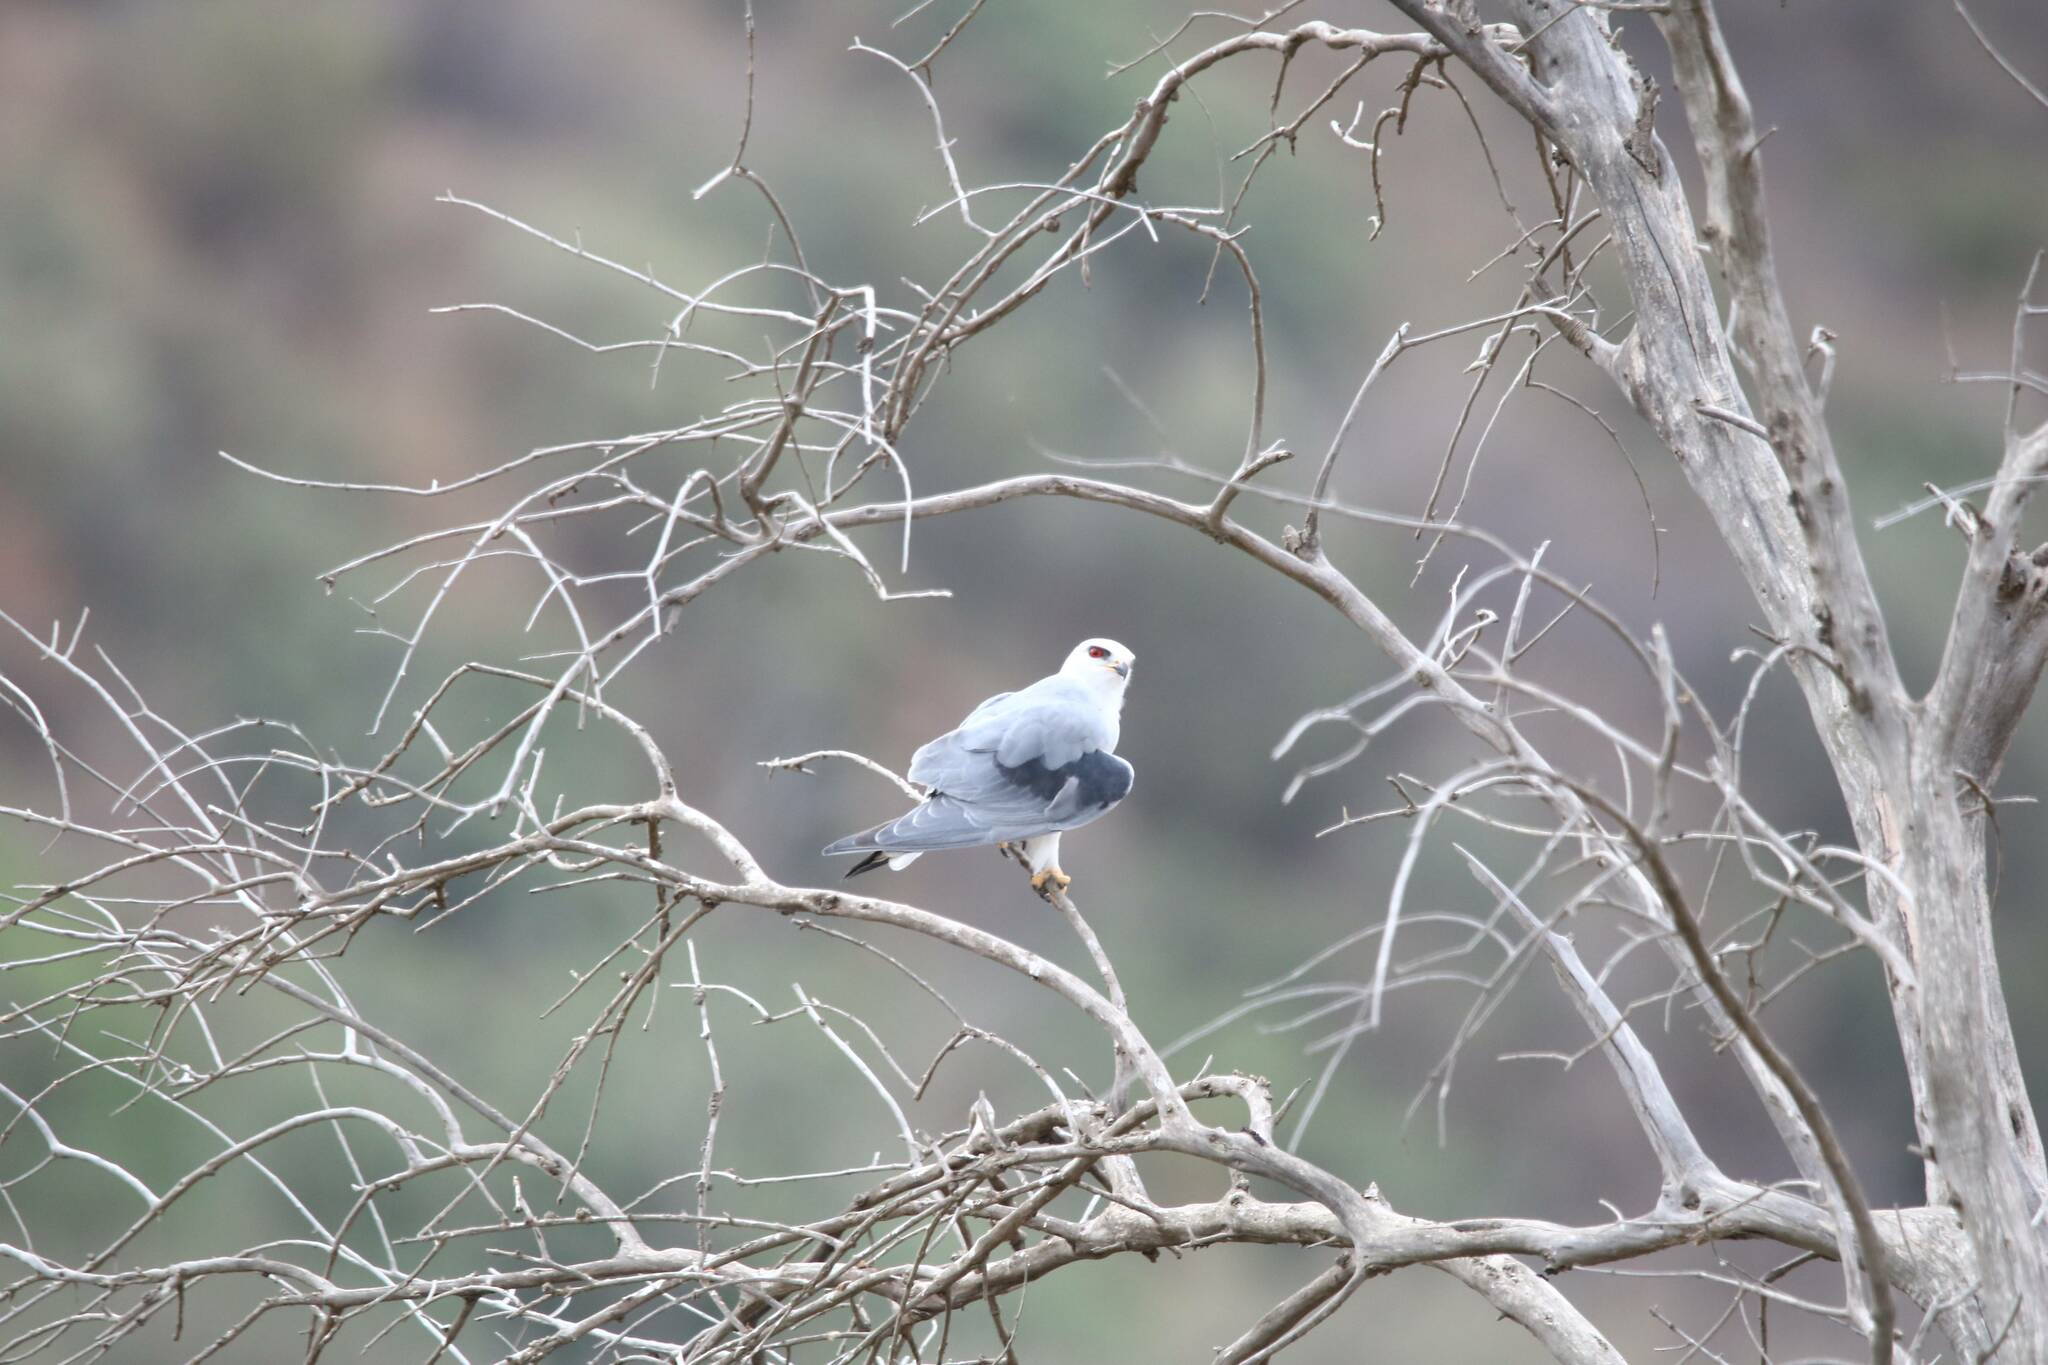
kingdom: Animalia
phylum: Chordata
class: Aves
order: Accipitriformes
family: Accipitridae
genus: Elanus
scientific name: Elanus caeruleus
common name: Black-winged kite
